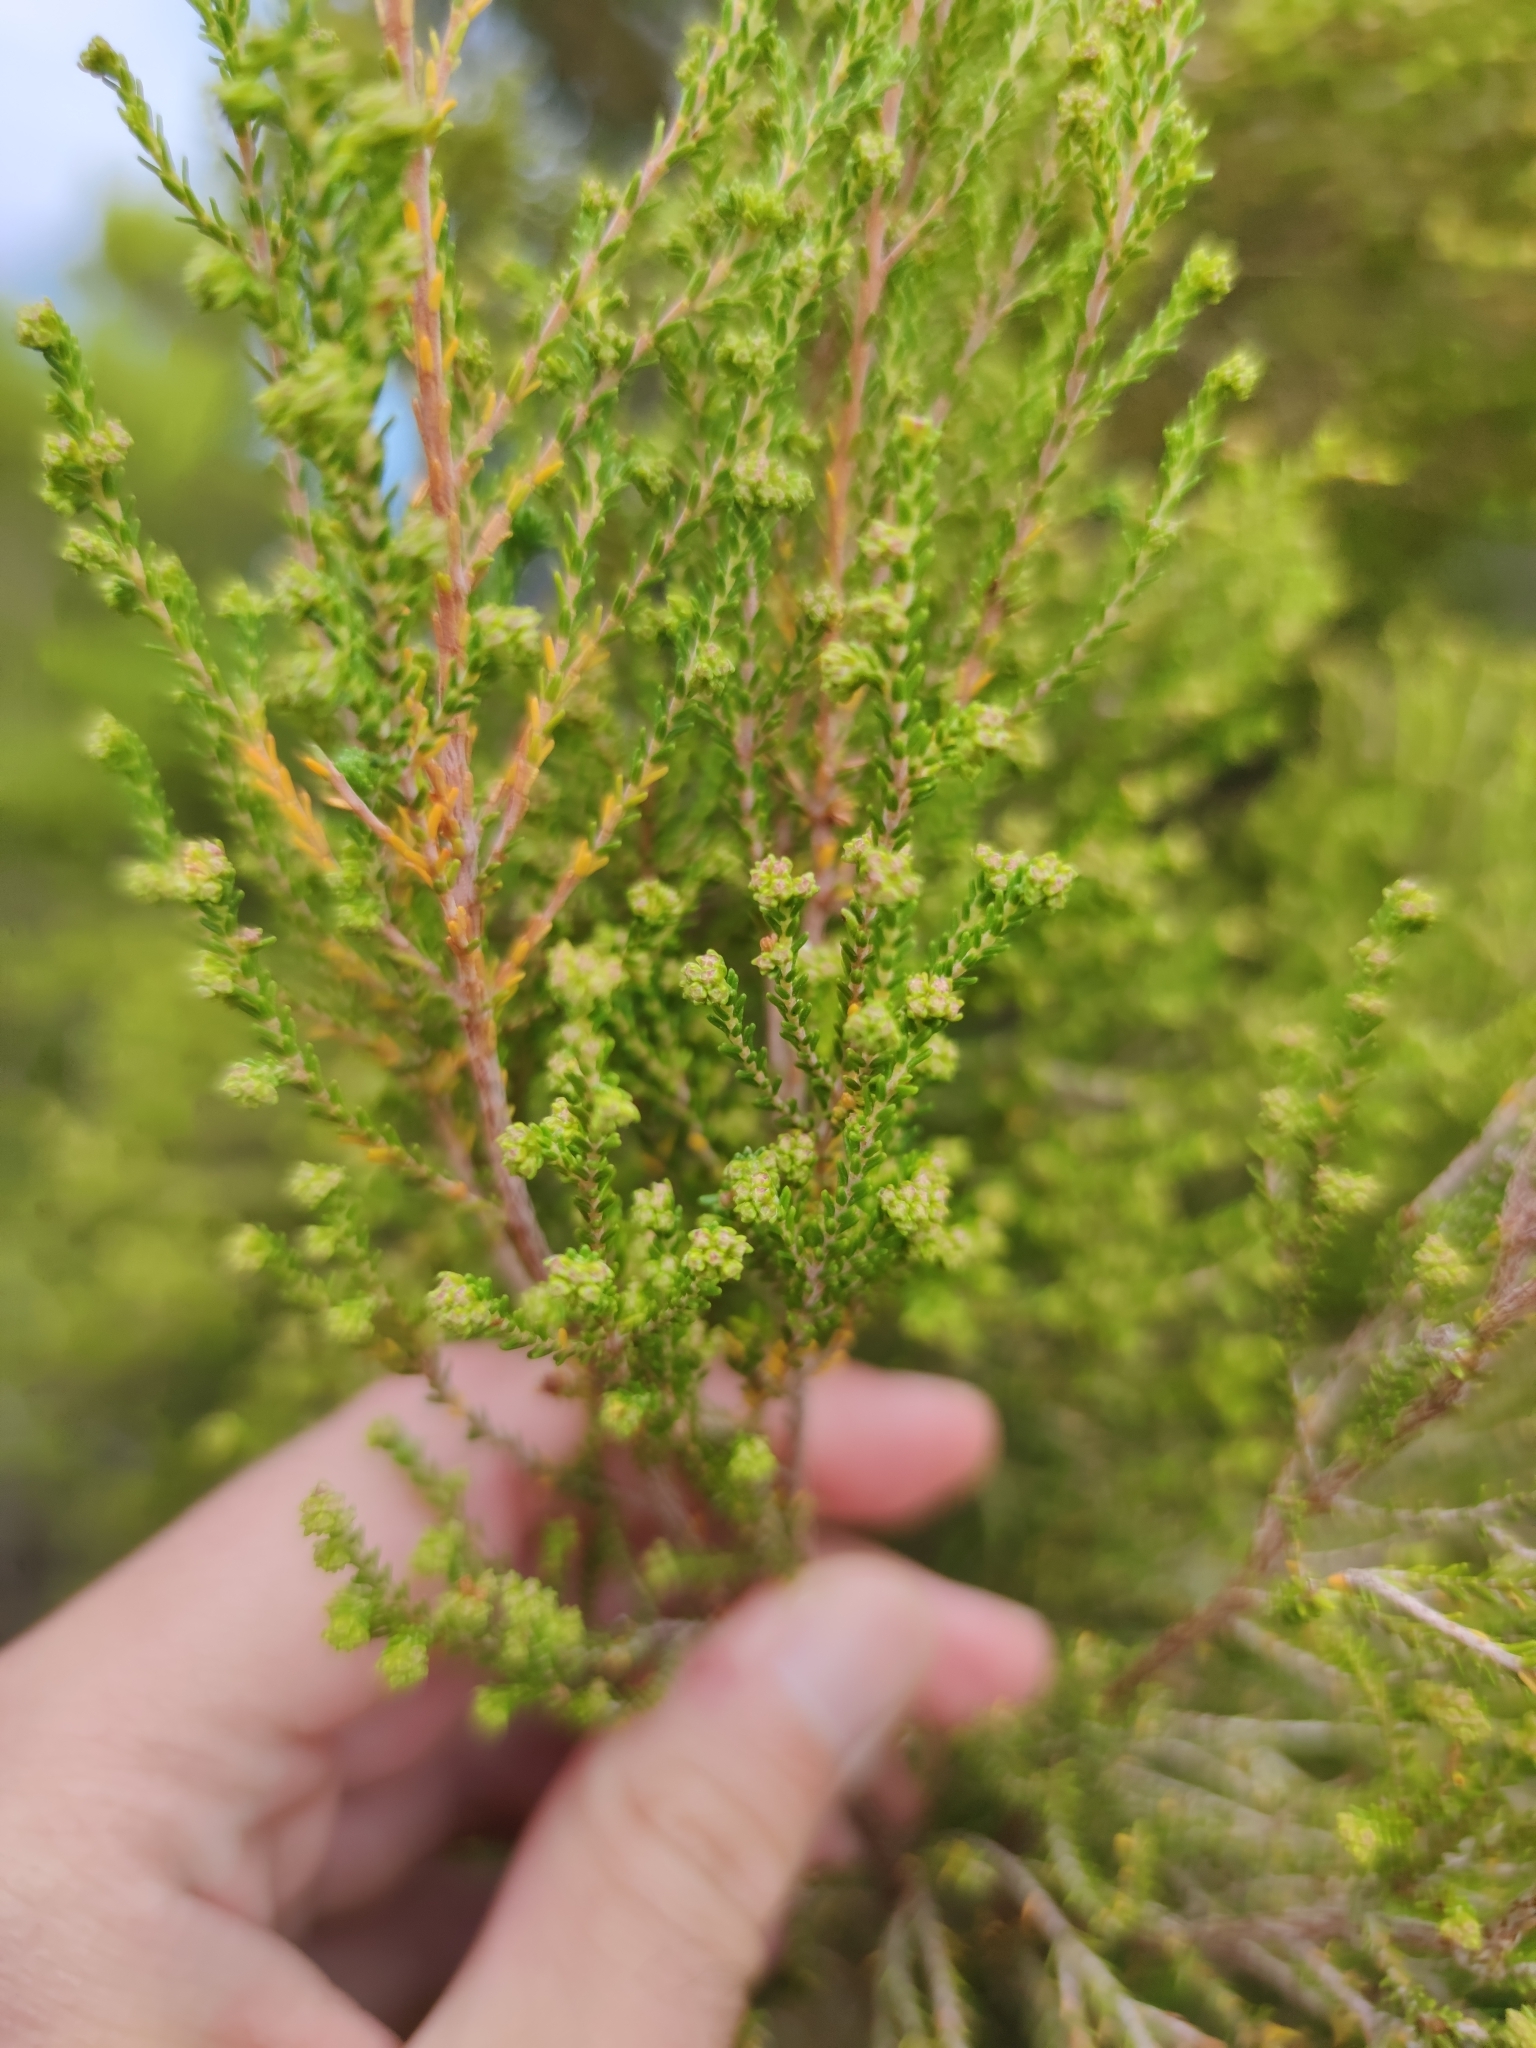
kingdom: Plantae
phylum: Tracheophyta
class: Magnoliopsida
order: Ericales
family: Ericaceae
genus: Erica
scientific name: Erica tristis
